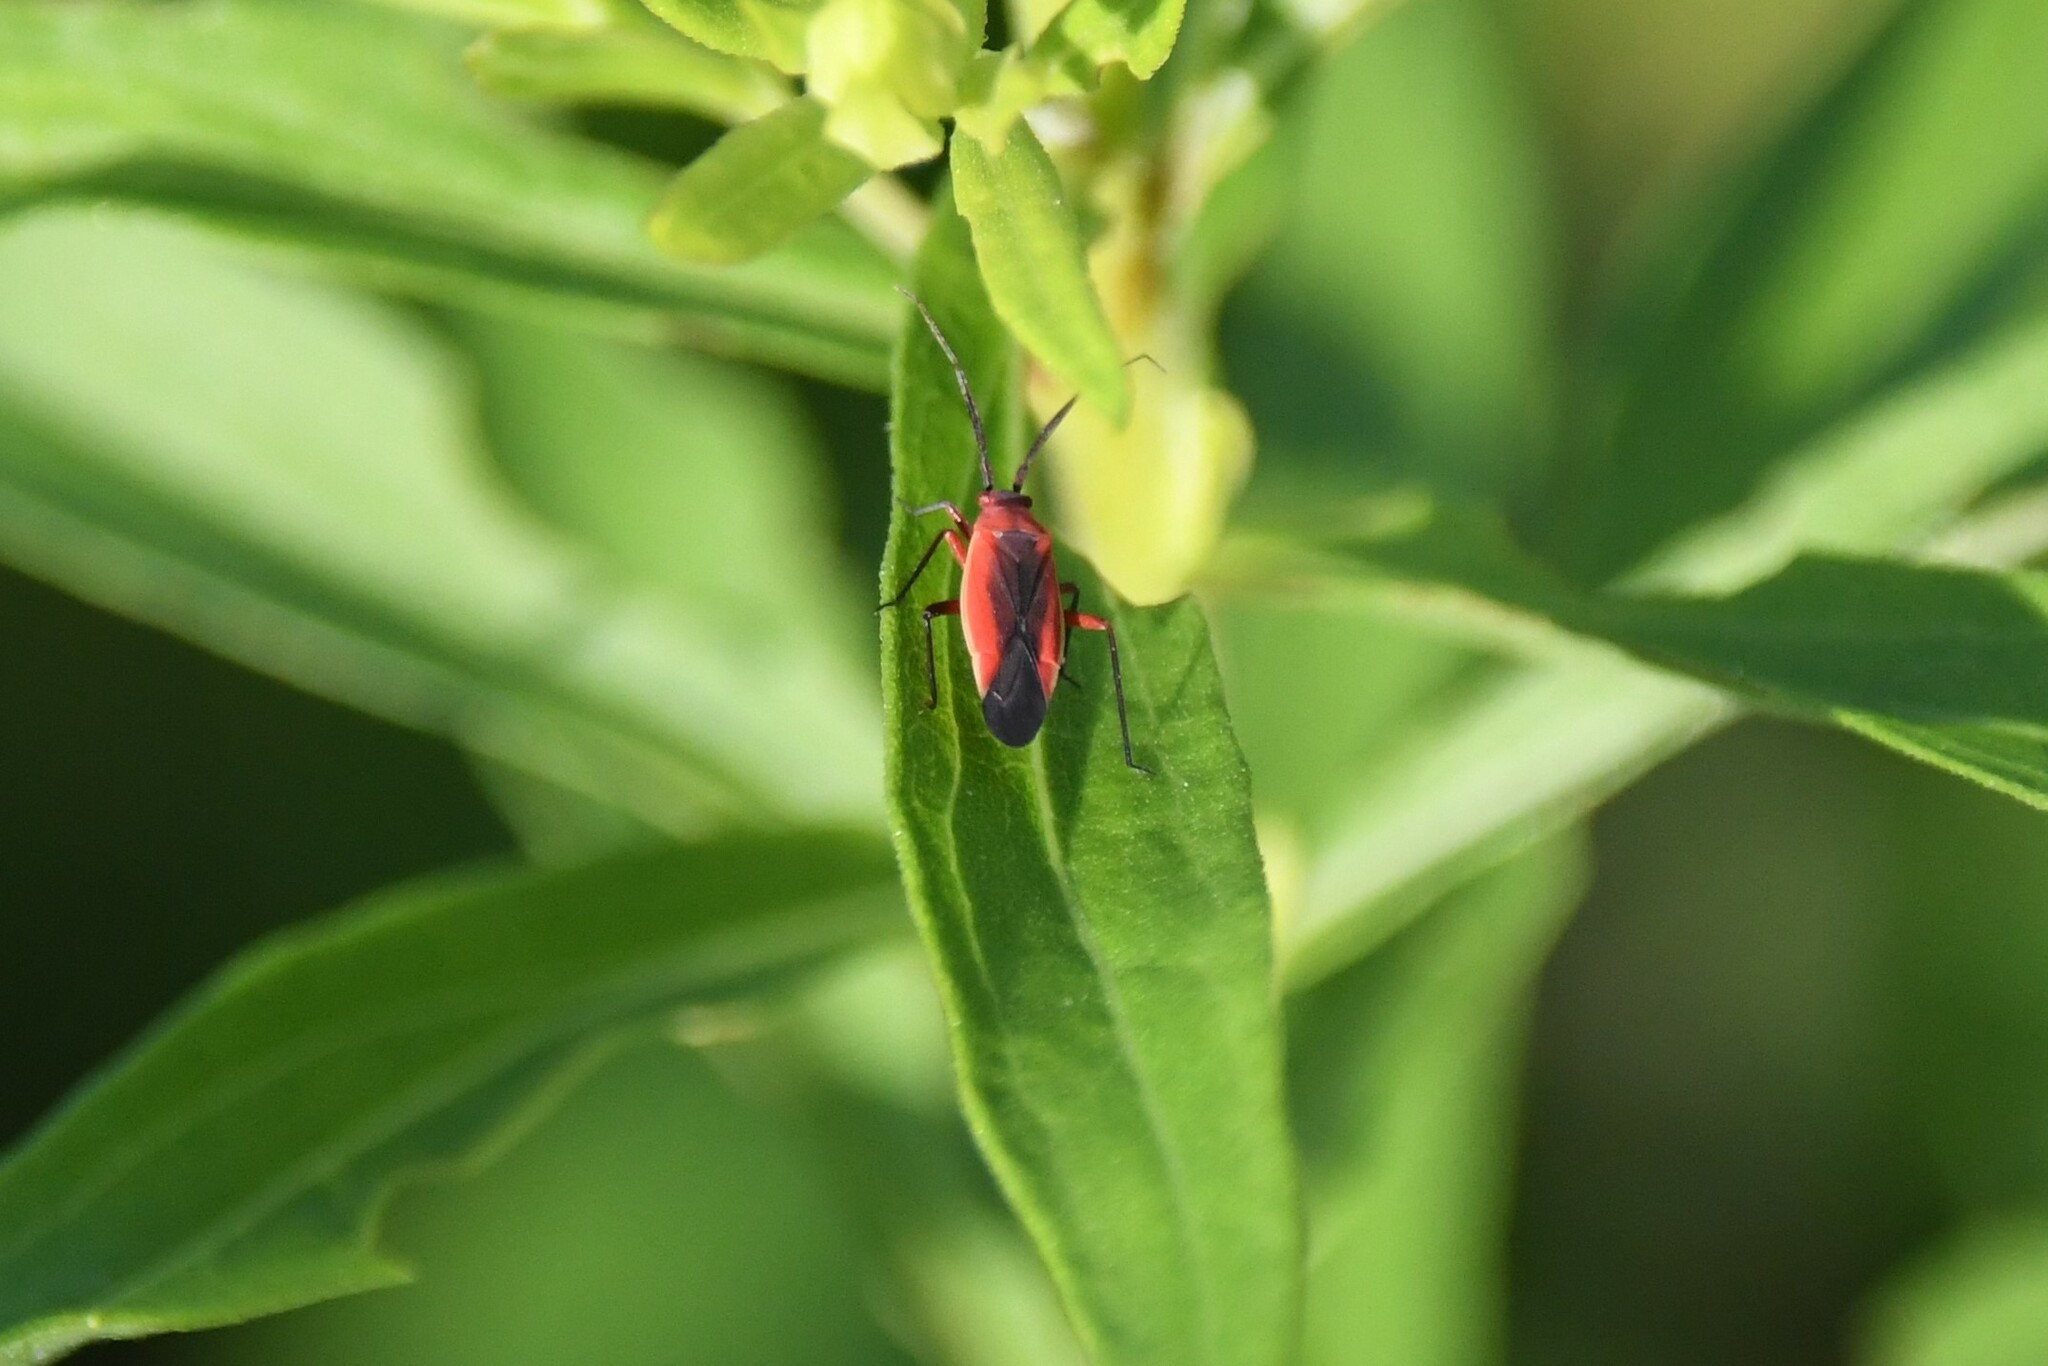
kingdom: Animalia
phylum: Arthropoda
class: Insecta
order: Hemiptera
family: Miridae
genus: Lopidea
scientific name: Lopidea instabilis
